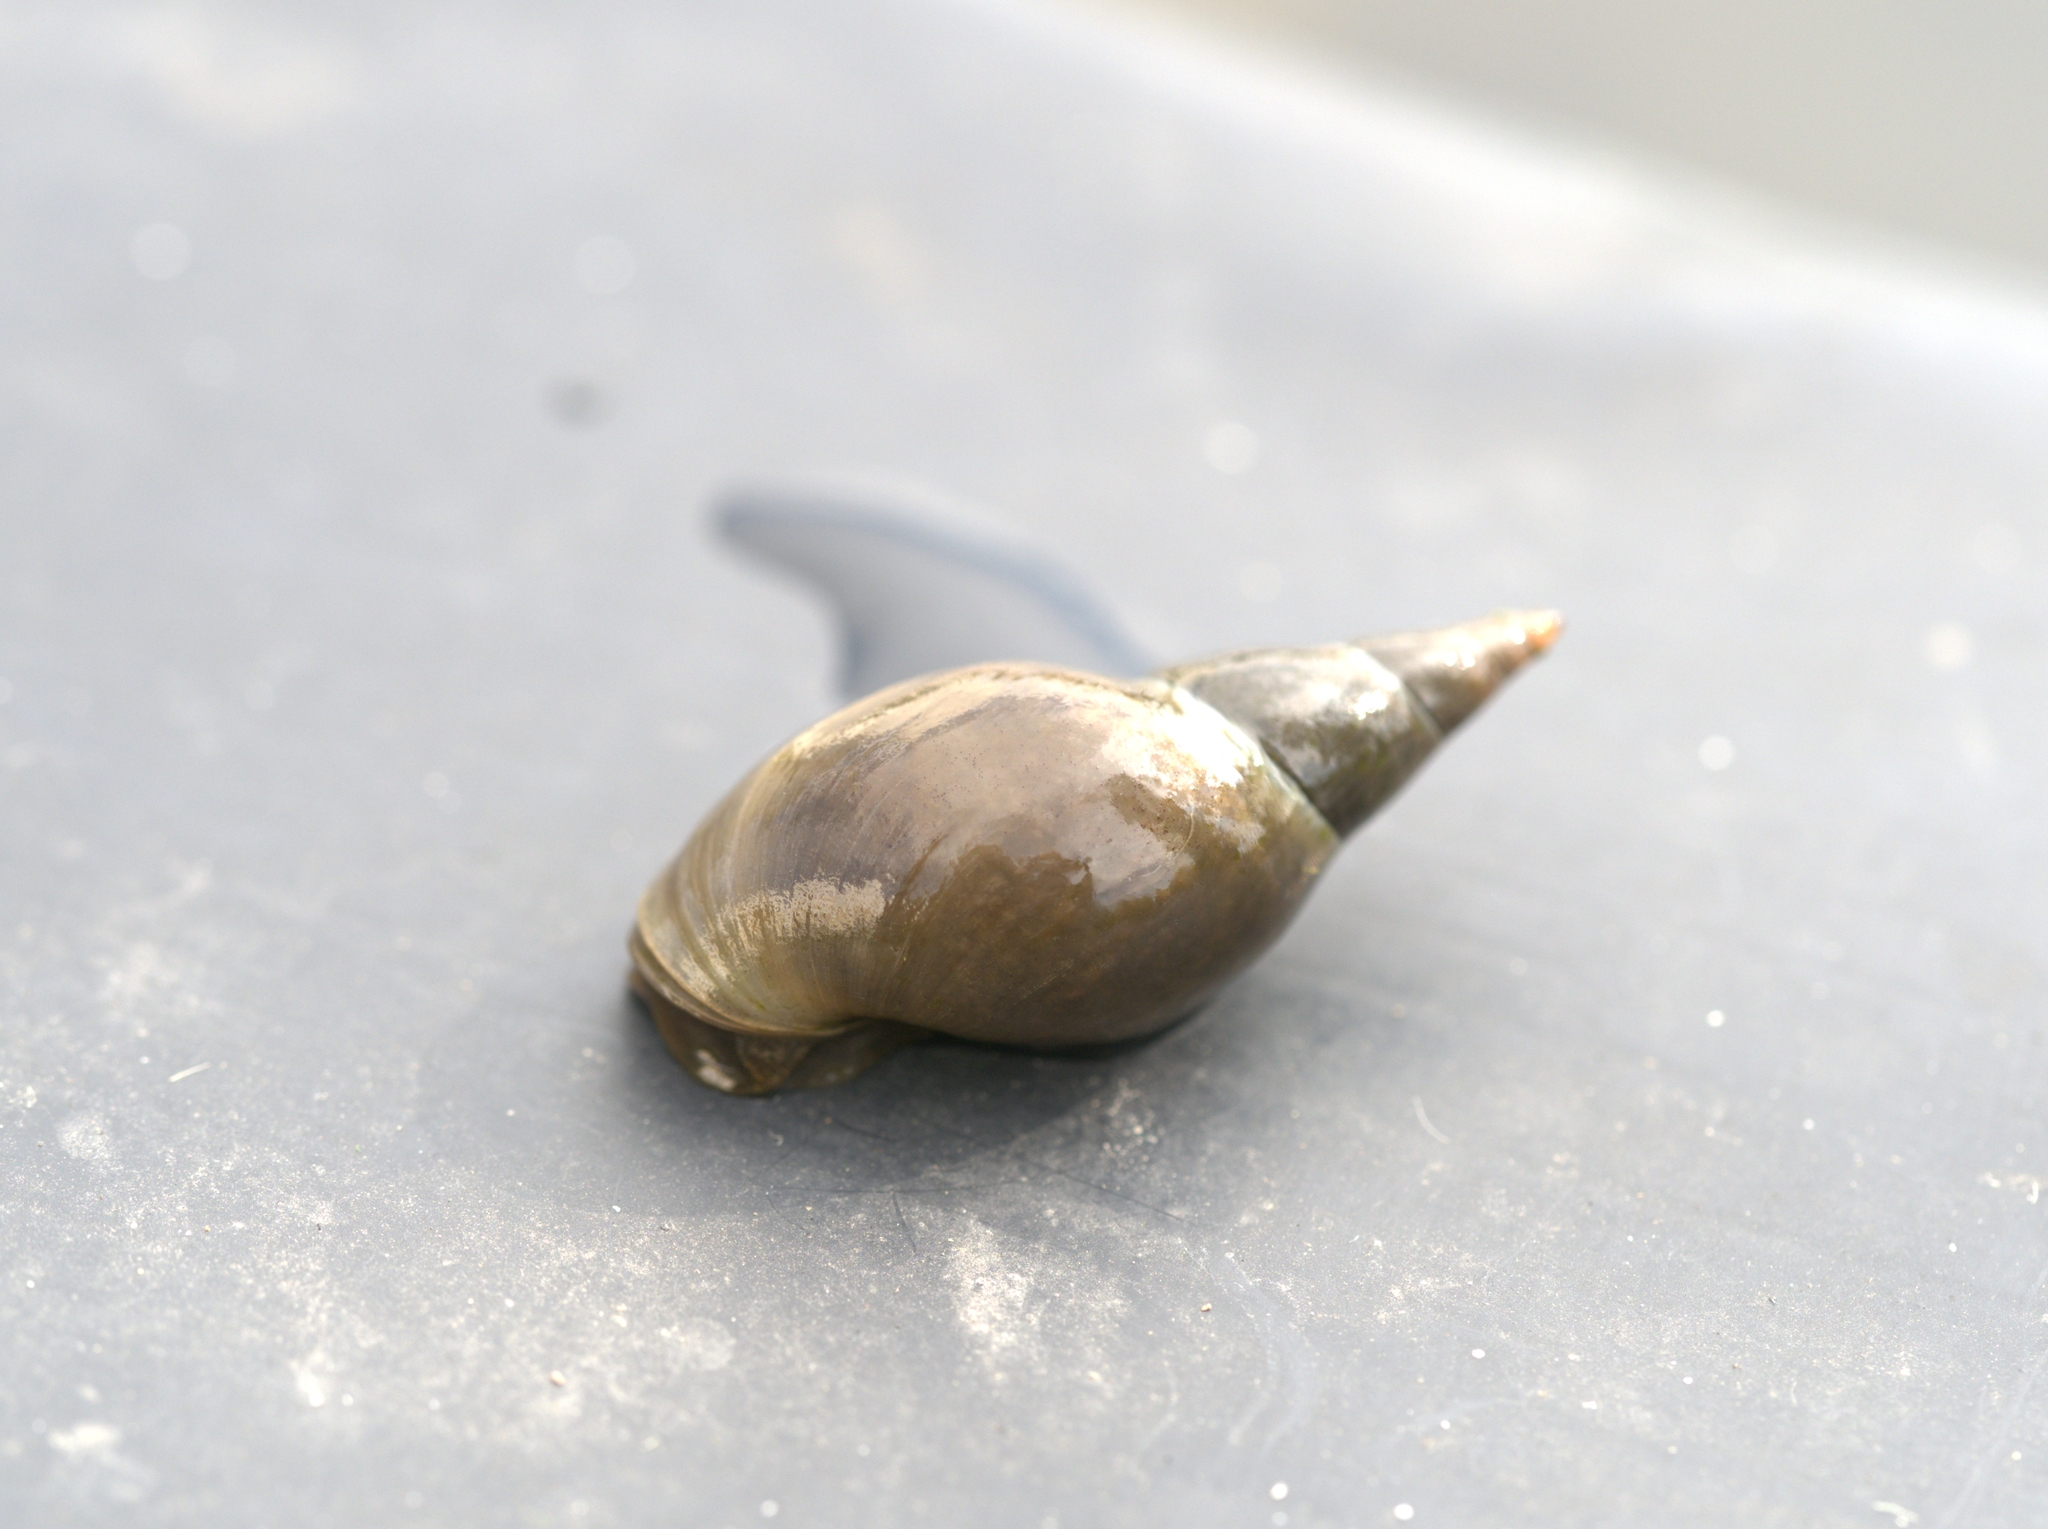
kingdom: Animalia
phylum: Mollusca
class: Gastropoda
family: Lymnaeidae
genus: Lymnaea
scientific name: Lymnaea stagnalis
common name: Great pond snail
